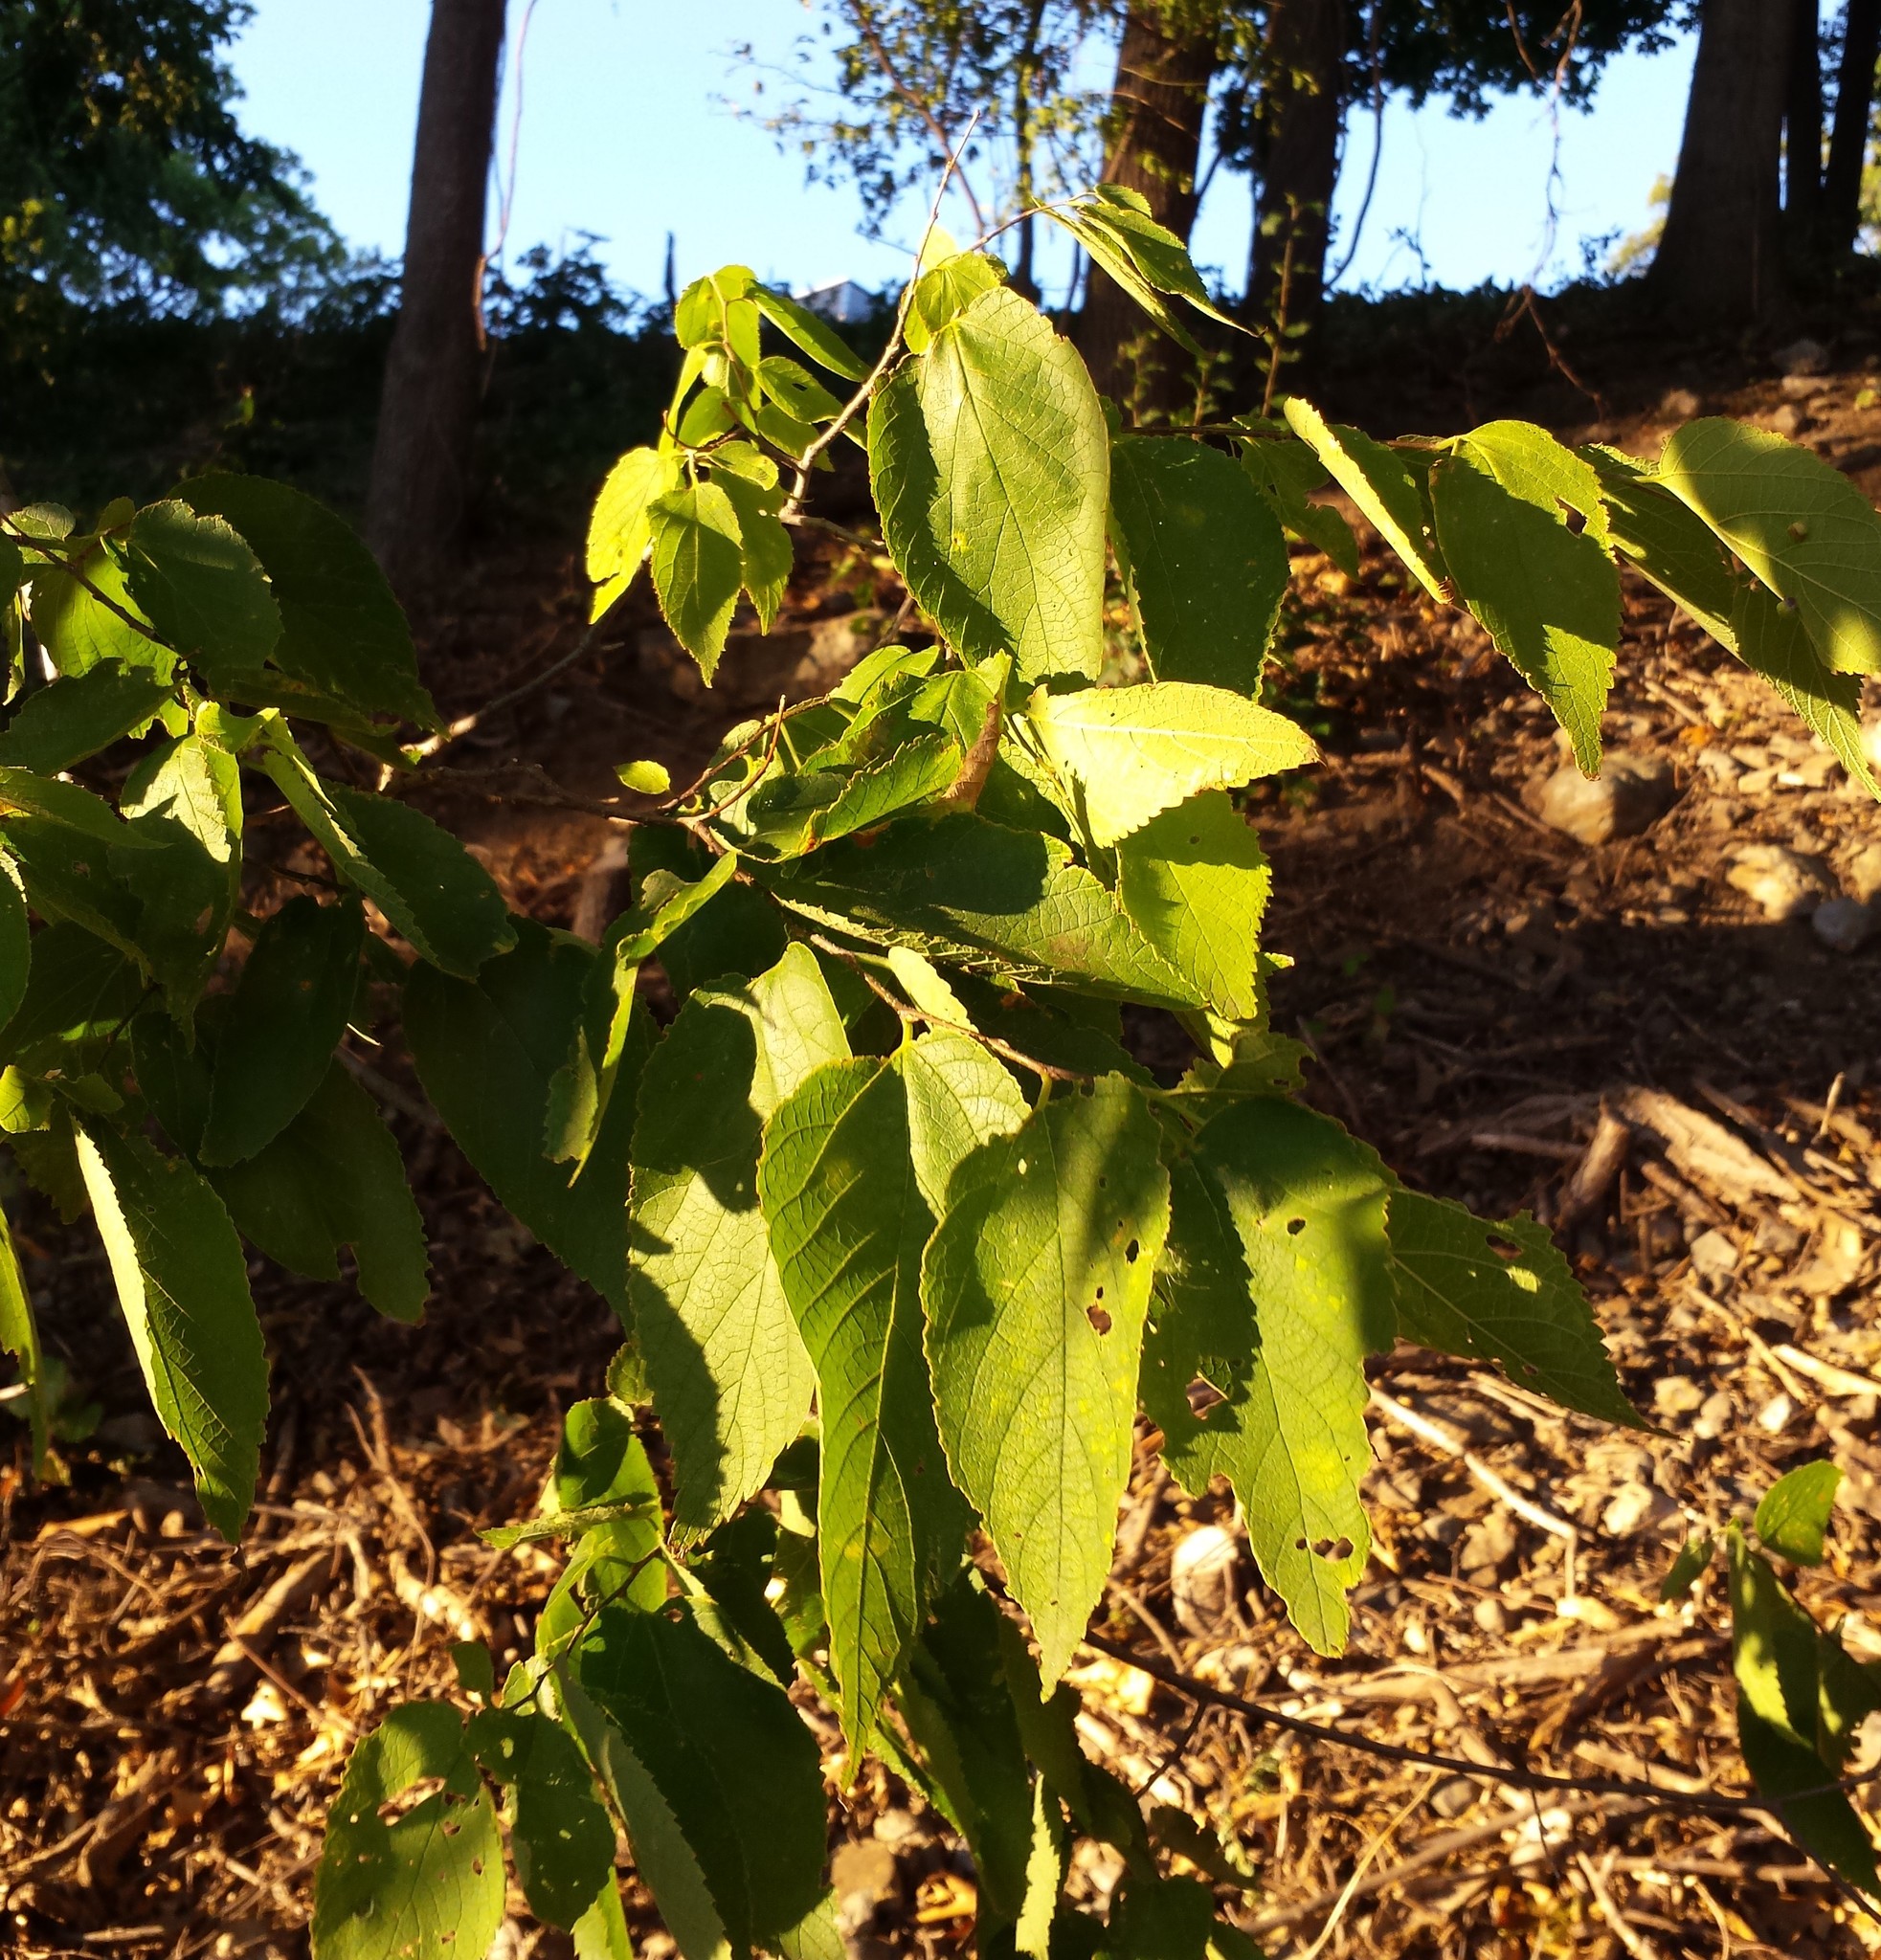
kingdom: Plantae
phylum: Tracheophyta
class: Magnoliopsida
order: Rosales
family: Cannabaceae
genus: Celtis
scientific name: Celtis occidentalis
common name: Common hackberry
